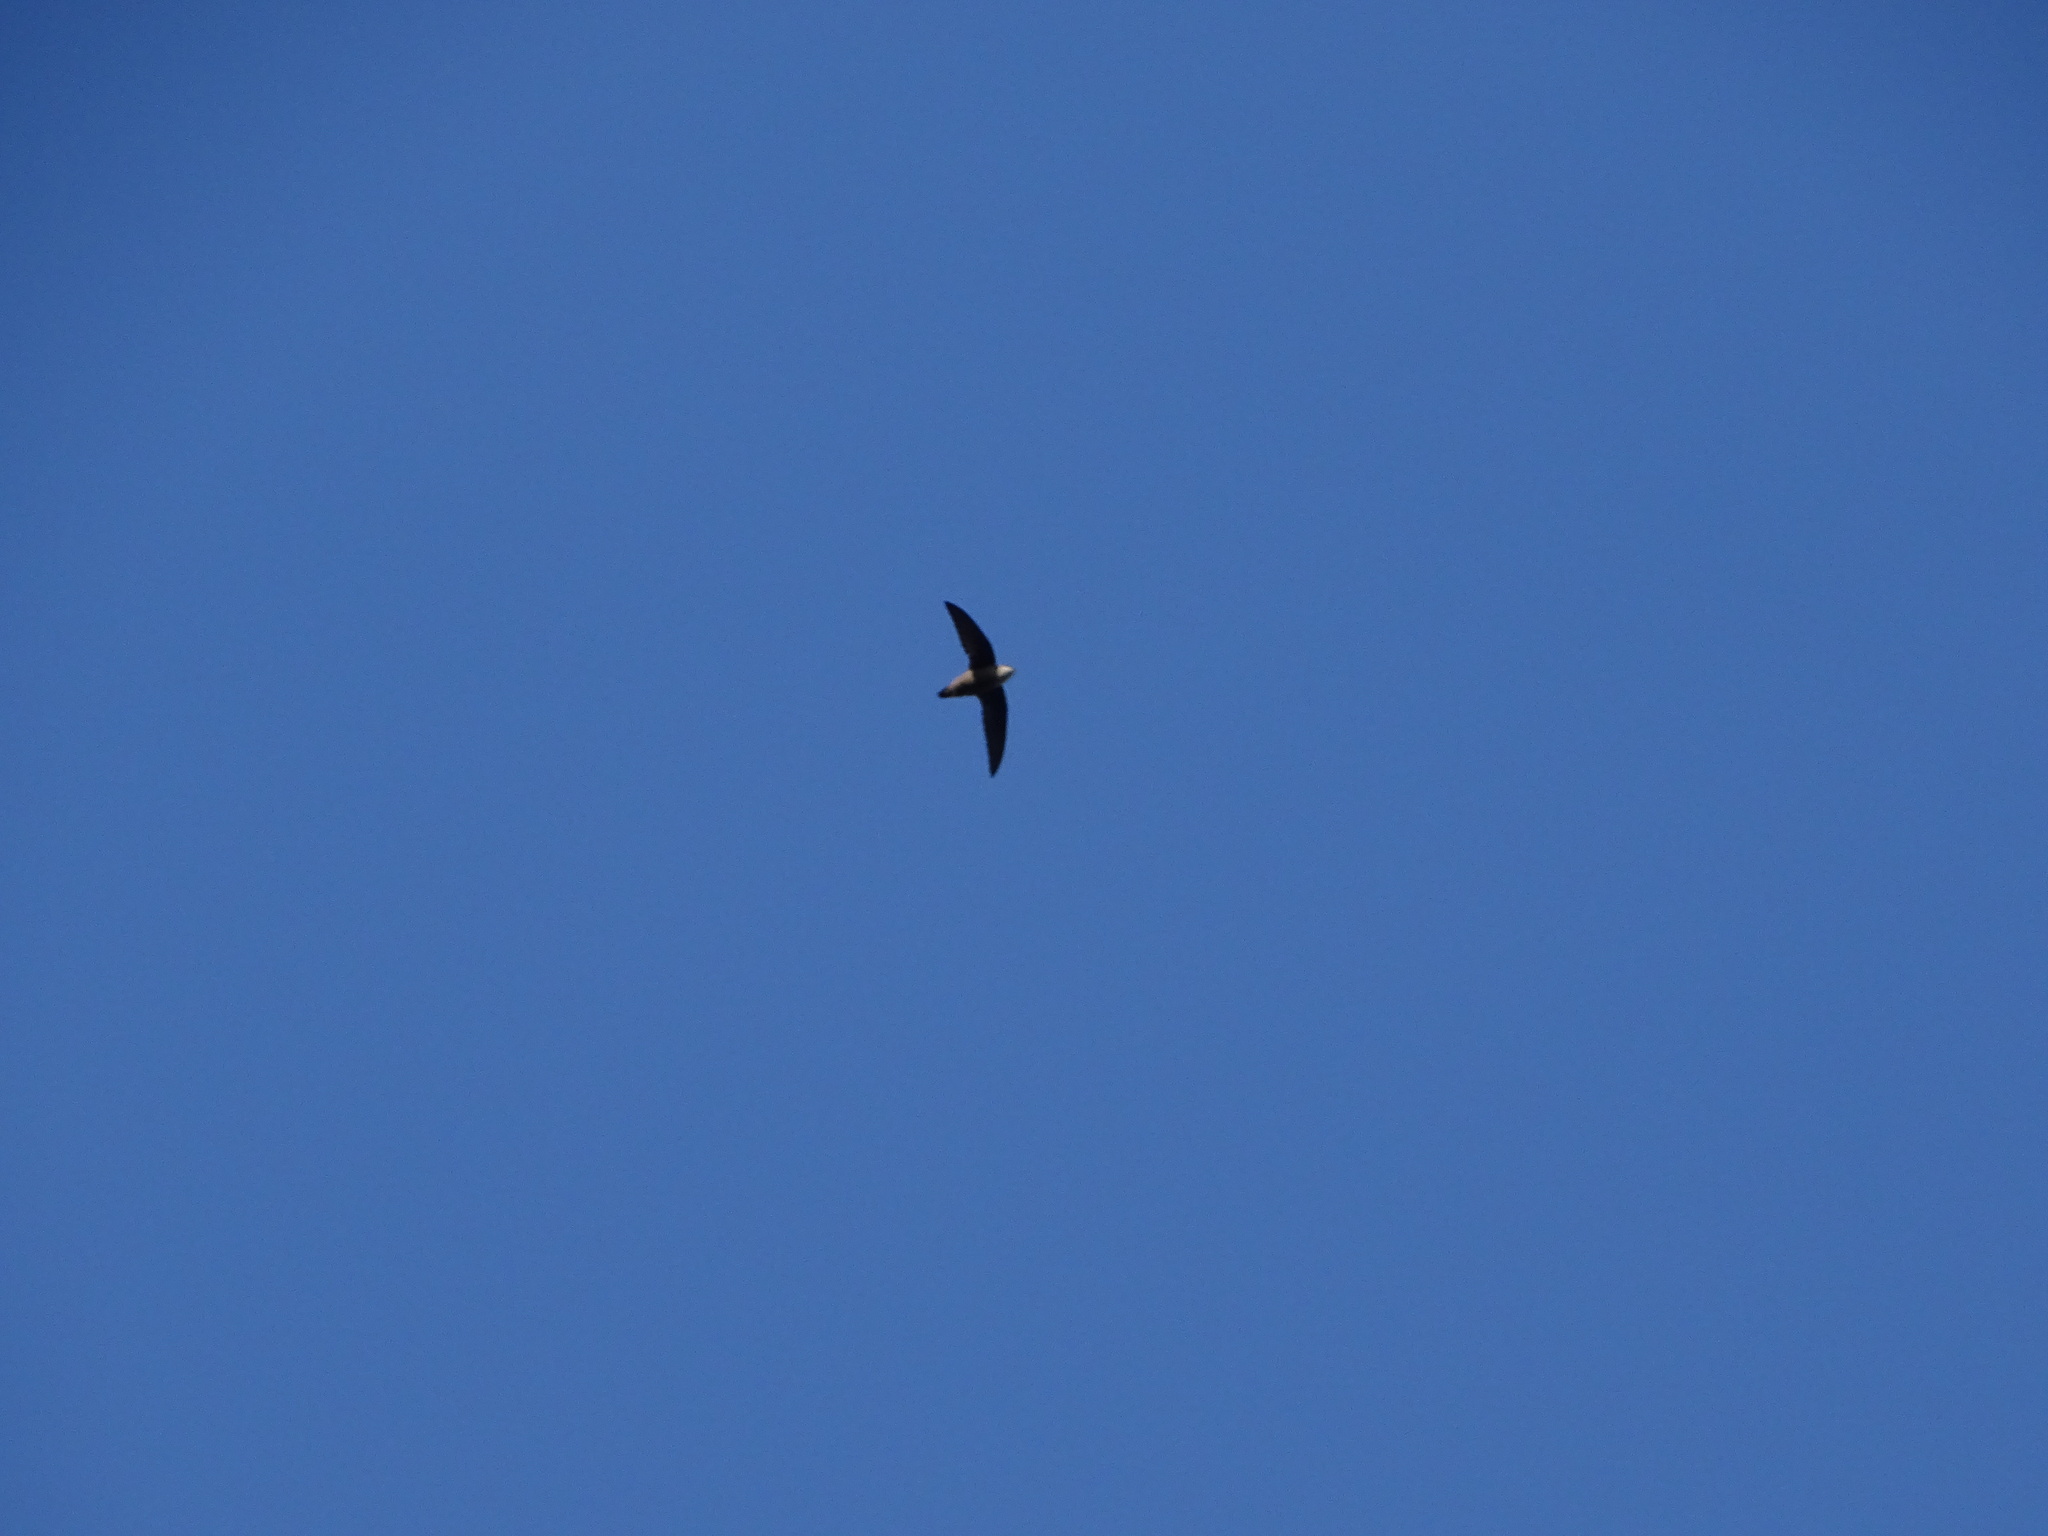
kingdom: Animalia
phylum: Chordata
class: Aves
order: Apodiformes
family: Apodidae
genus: Chaetura
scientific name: Chaetura pelagica
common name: Chimney swift
